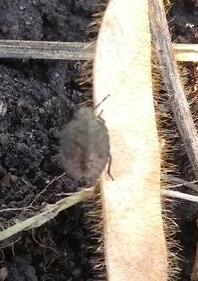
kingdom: Animalia
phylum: Arthropoda
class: Insecta
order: Hemiptera
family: Pentatomidae
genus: Dolycoris
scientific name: Dolycoris baccarum
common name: Sloe bug
